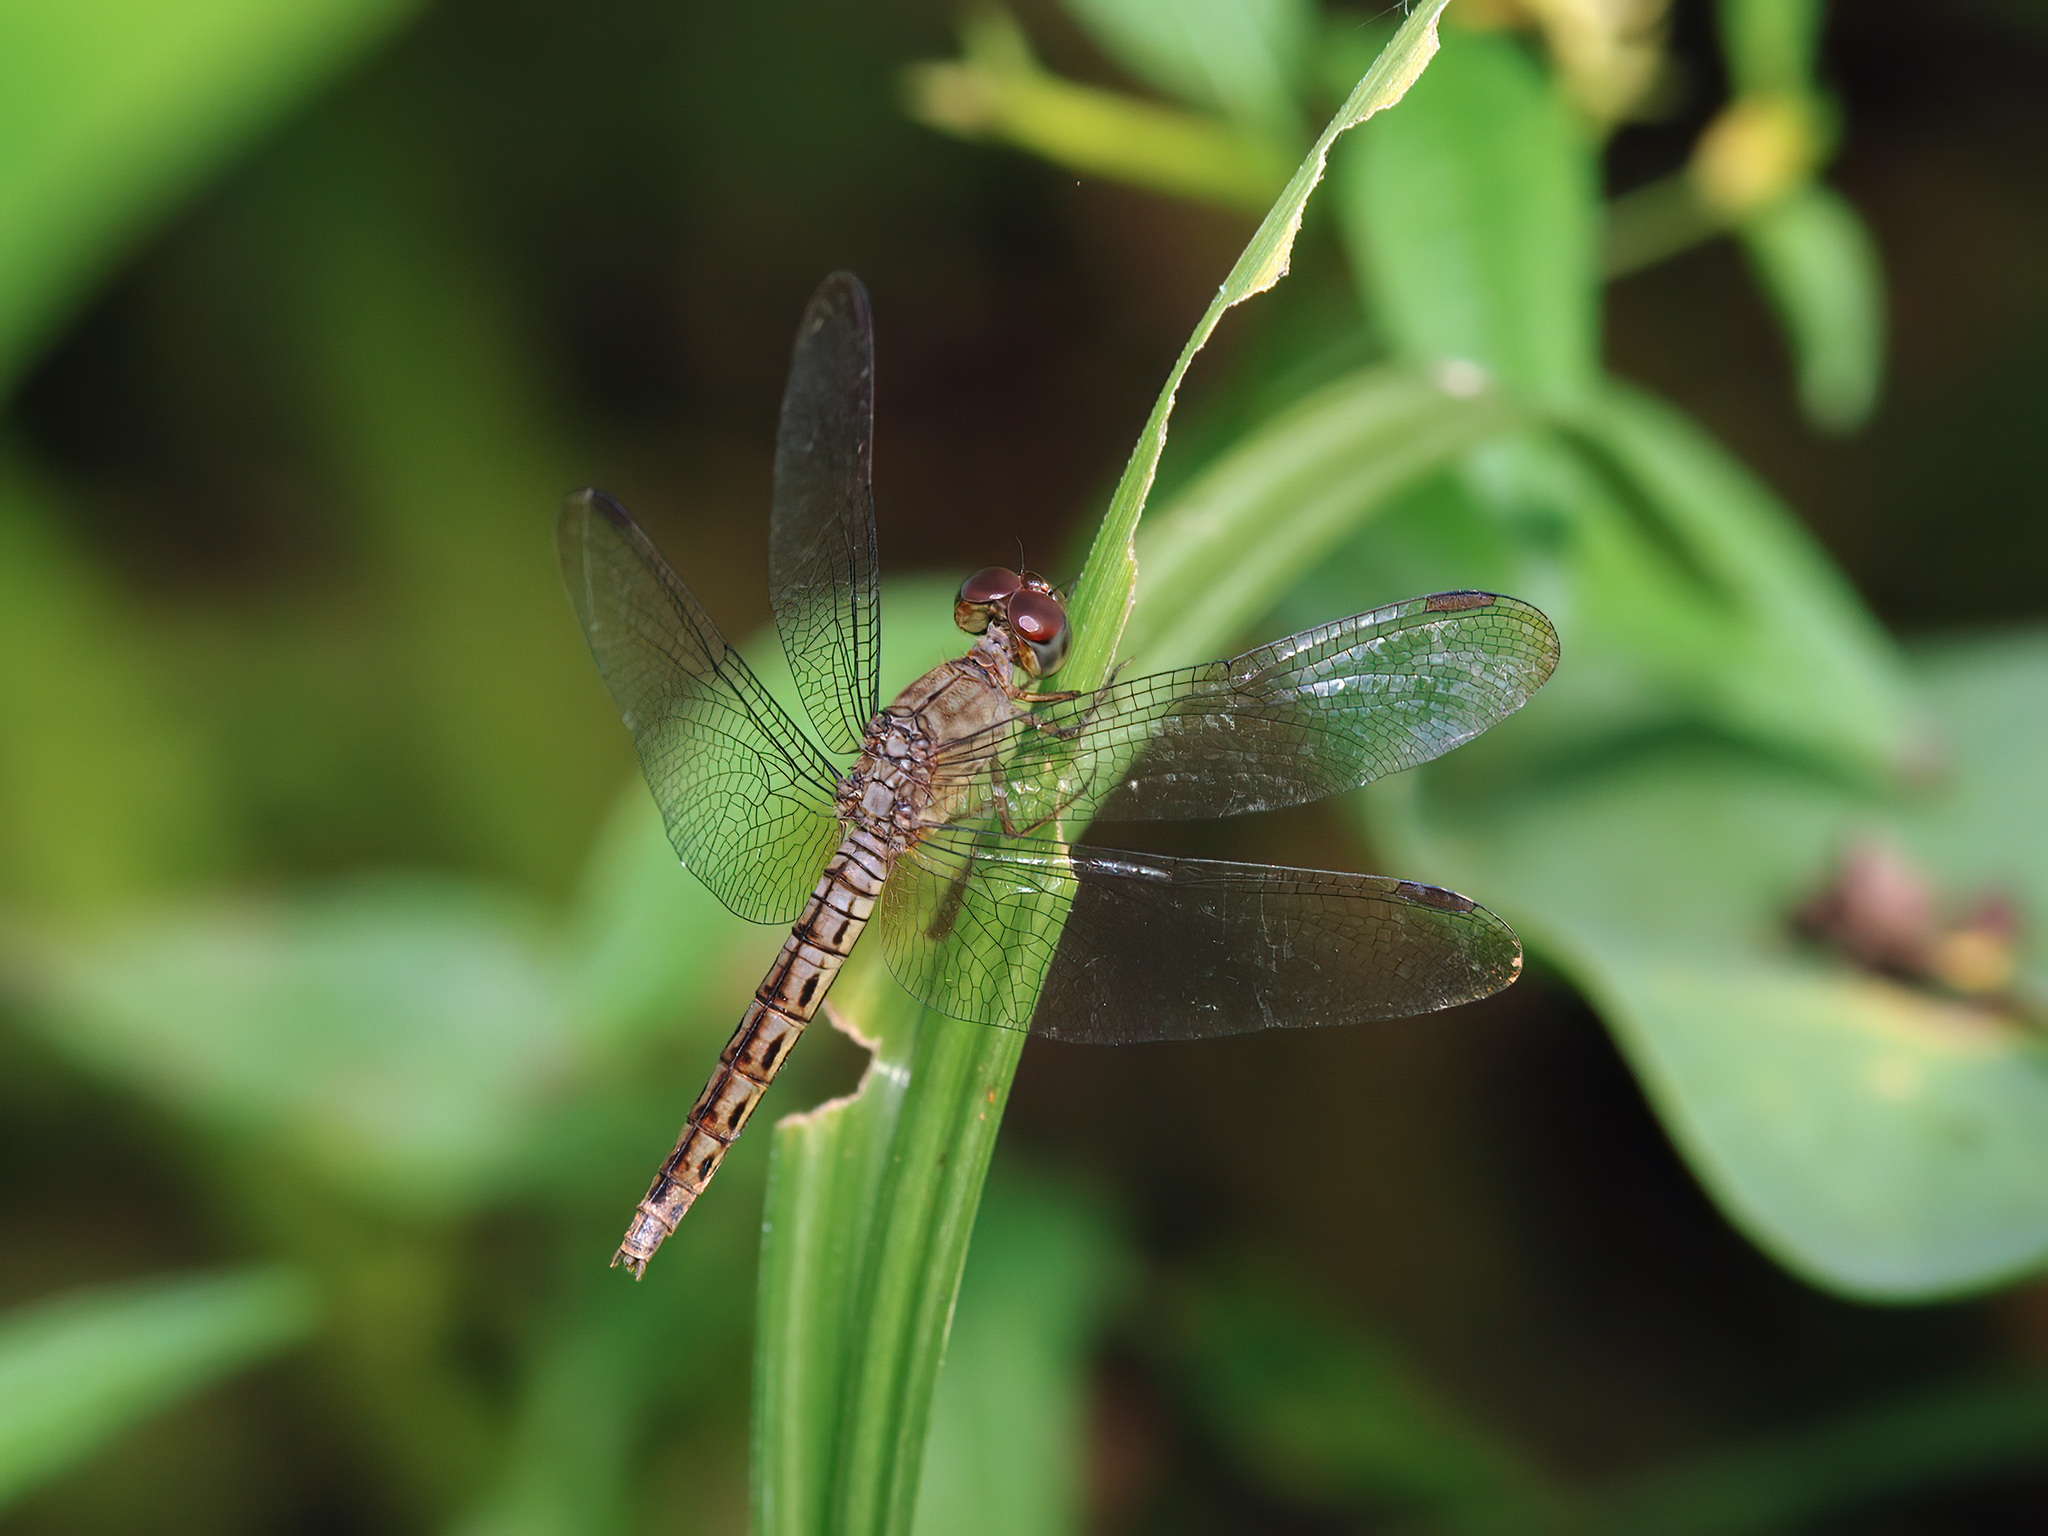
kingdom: Animalia
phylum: Arthropoda
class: Insecta
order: Odonata
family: Libellulidae
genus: Neurothemis
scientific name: Neurothemis fluctuans
